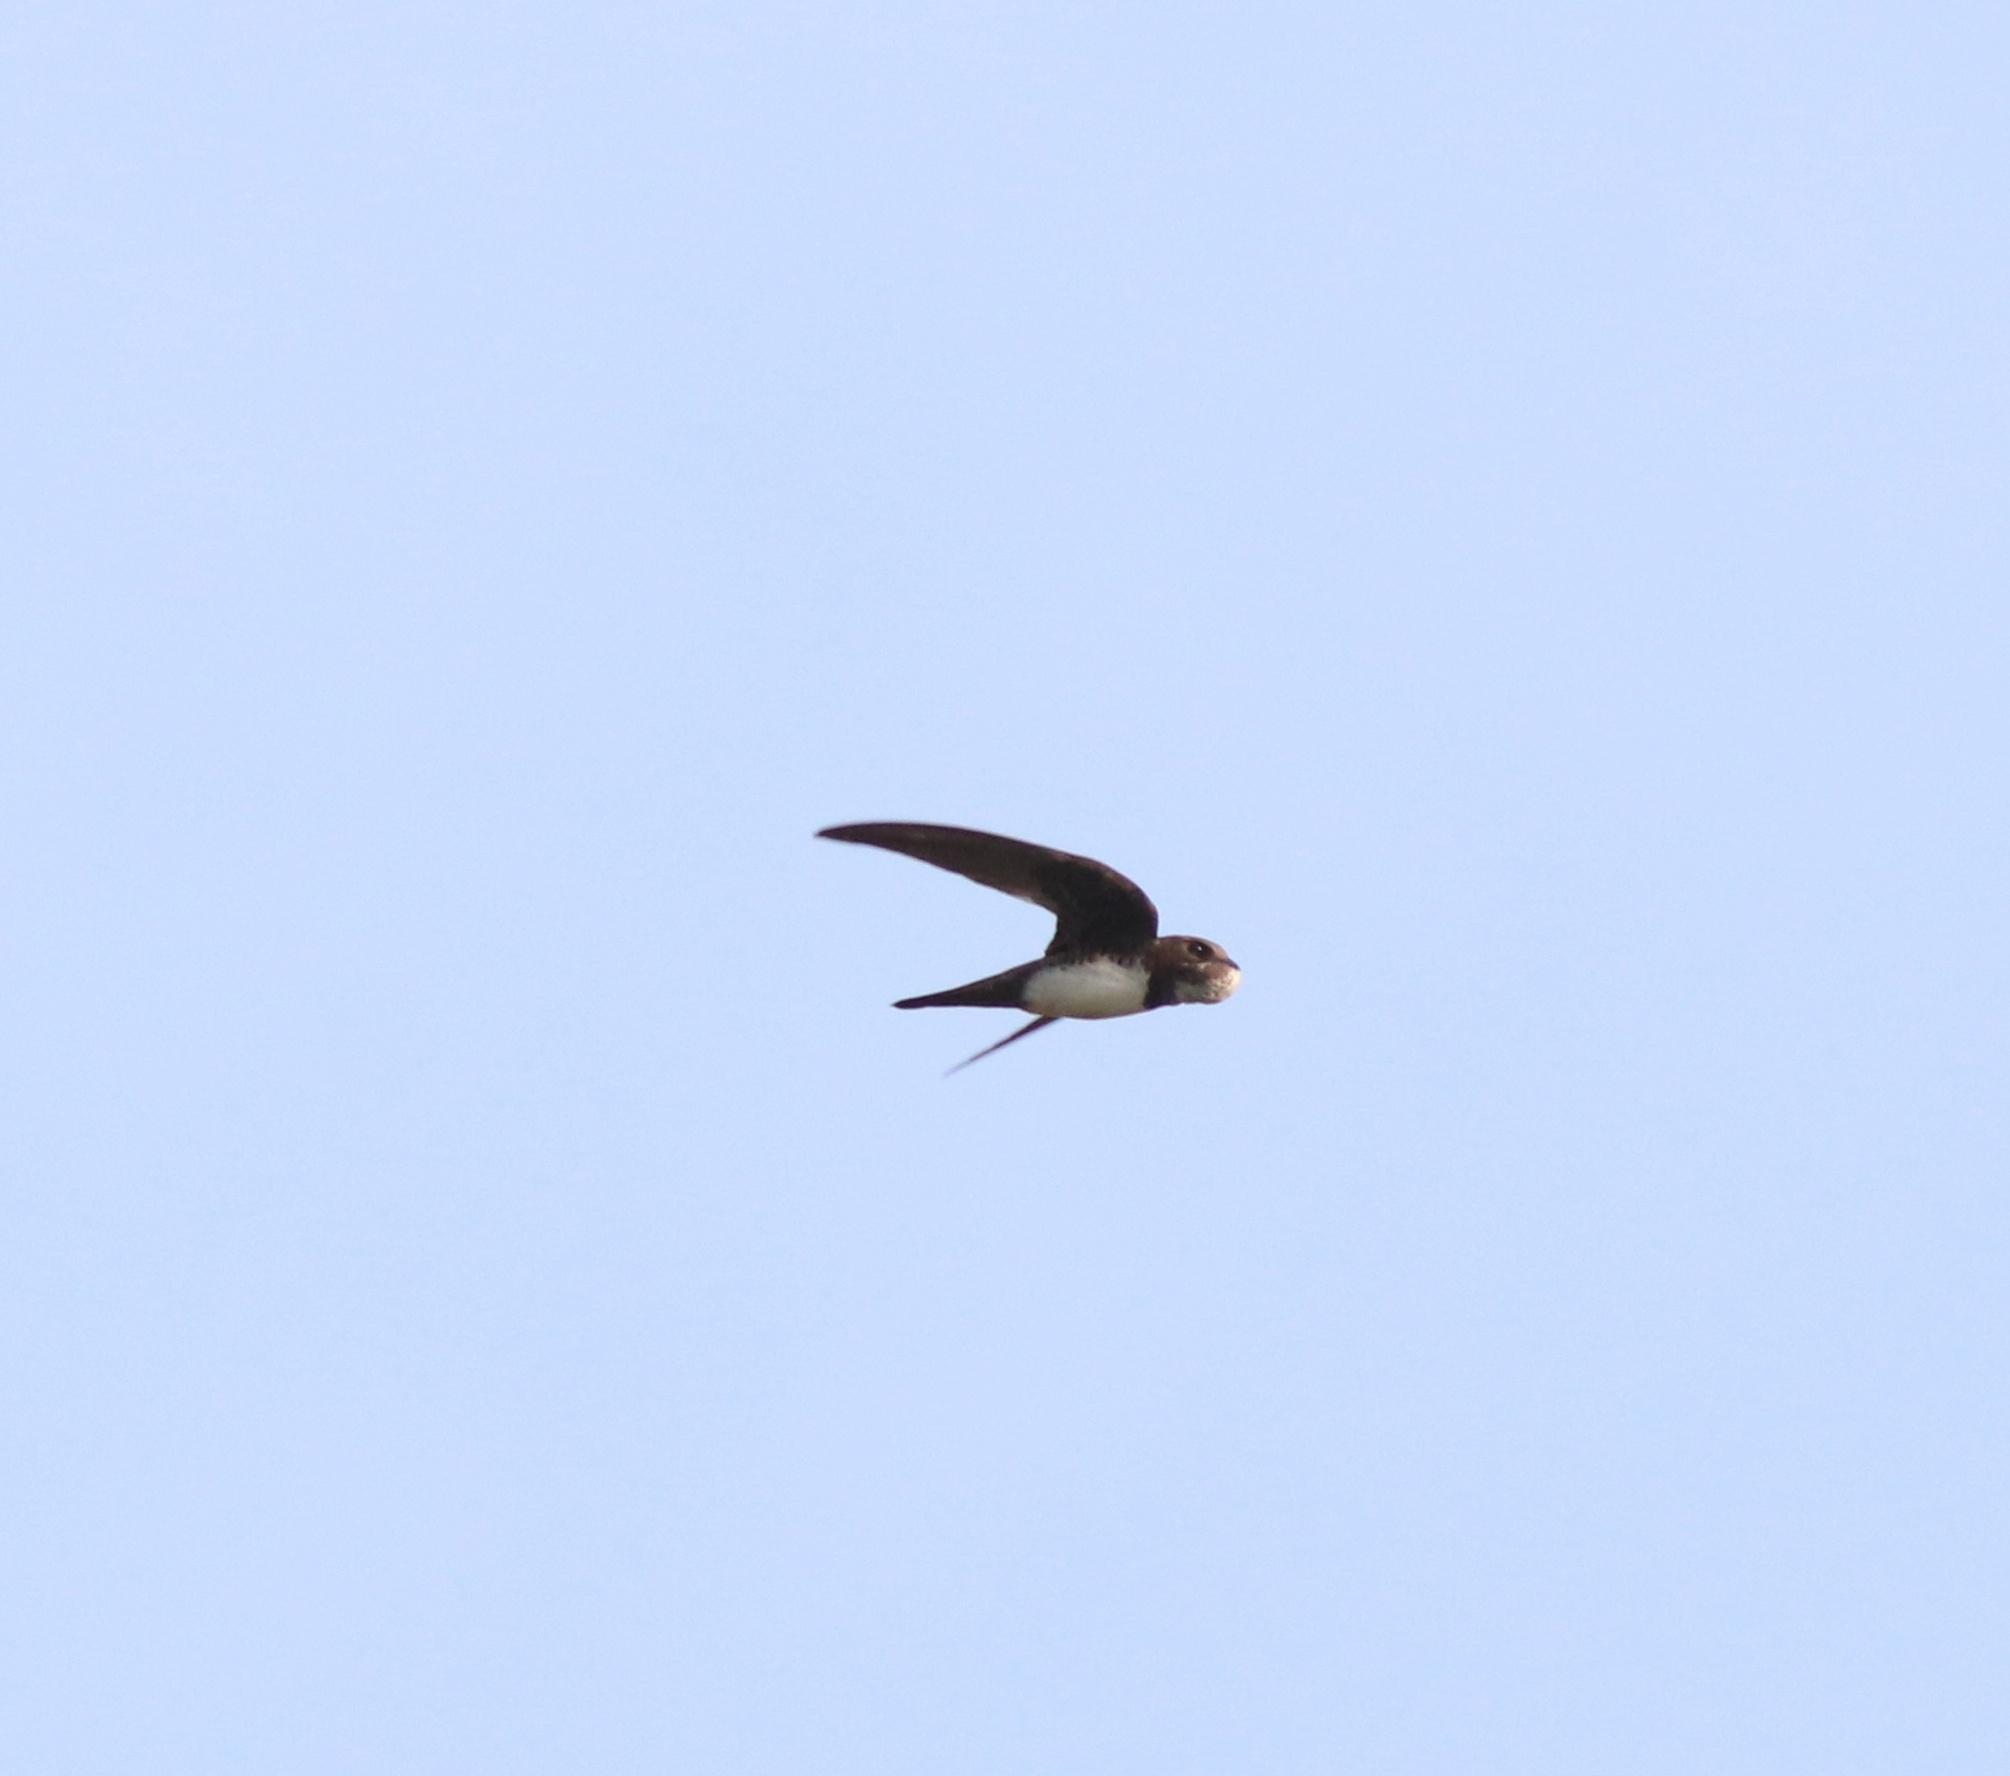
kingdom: Animalia
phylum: Chordata
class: Aves
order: Apodiformes
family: Apodidae
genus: Tachymarptis
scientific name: Tachymarptis melba
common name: Alpine swift
